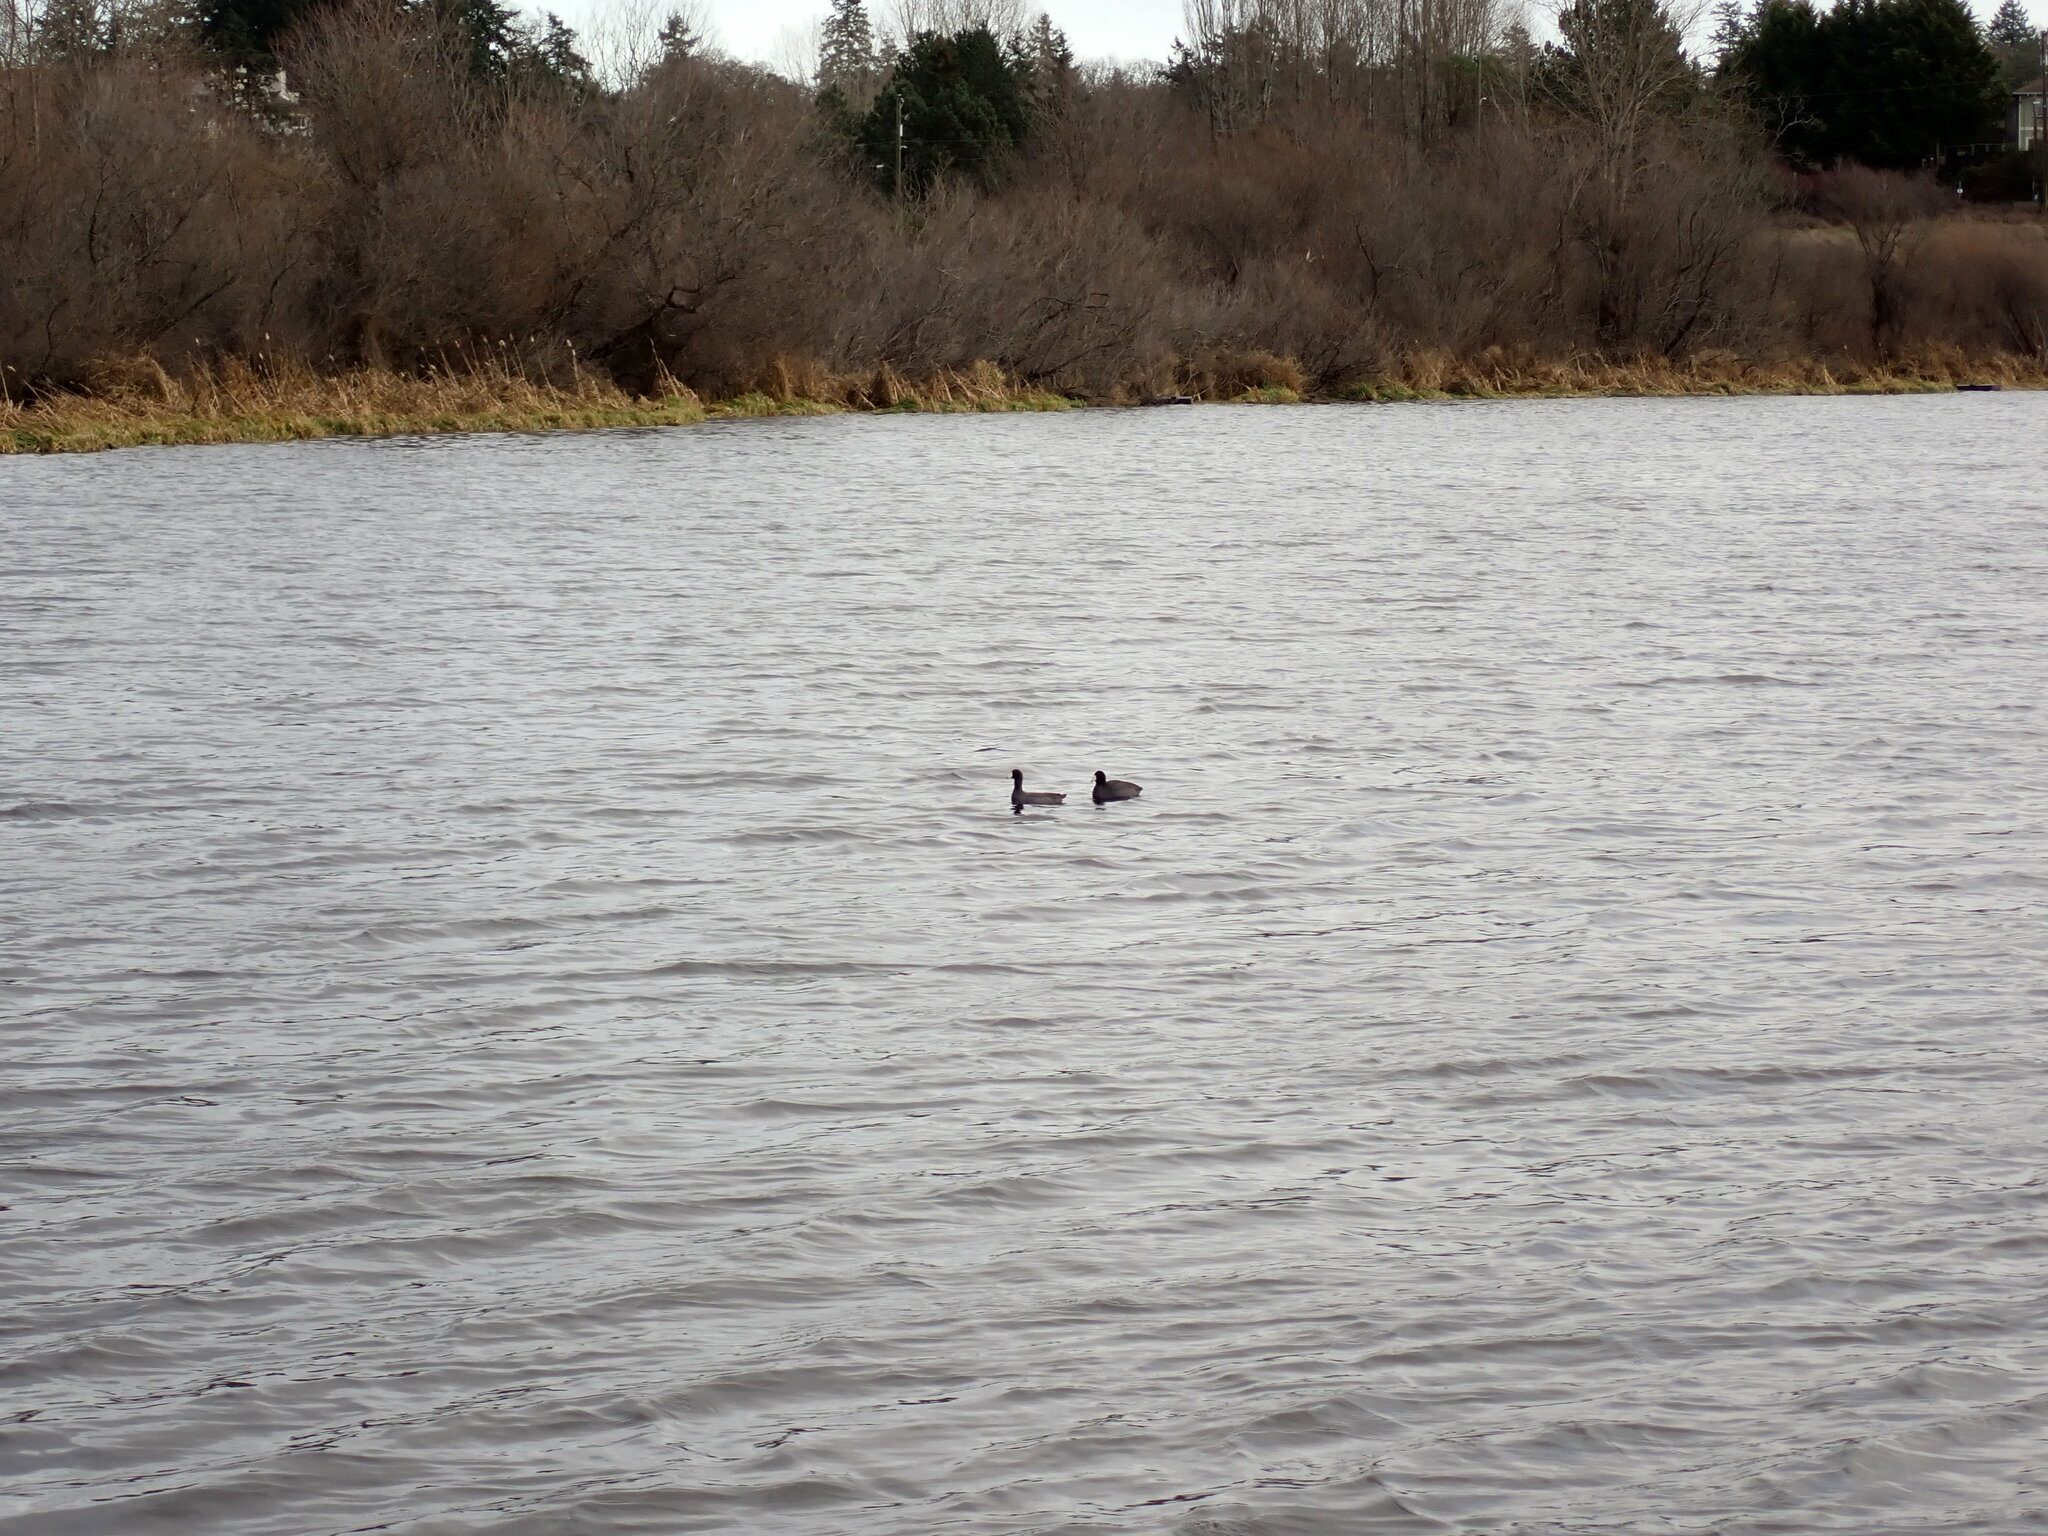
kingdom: Animalia
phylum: Chordata
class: Aves
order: Gruiformes
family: Rallidae
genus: Fulica
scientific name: Fulica americana
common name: American coot
